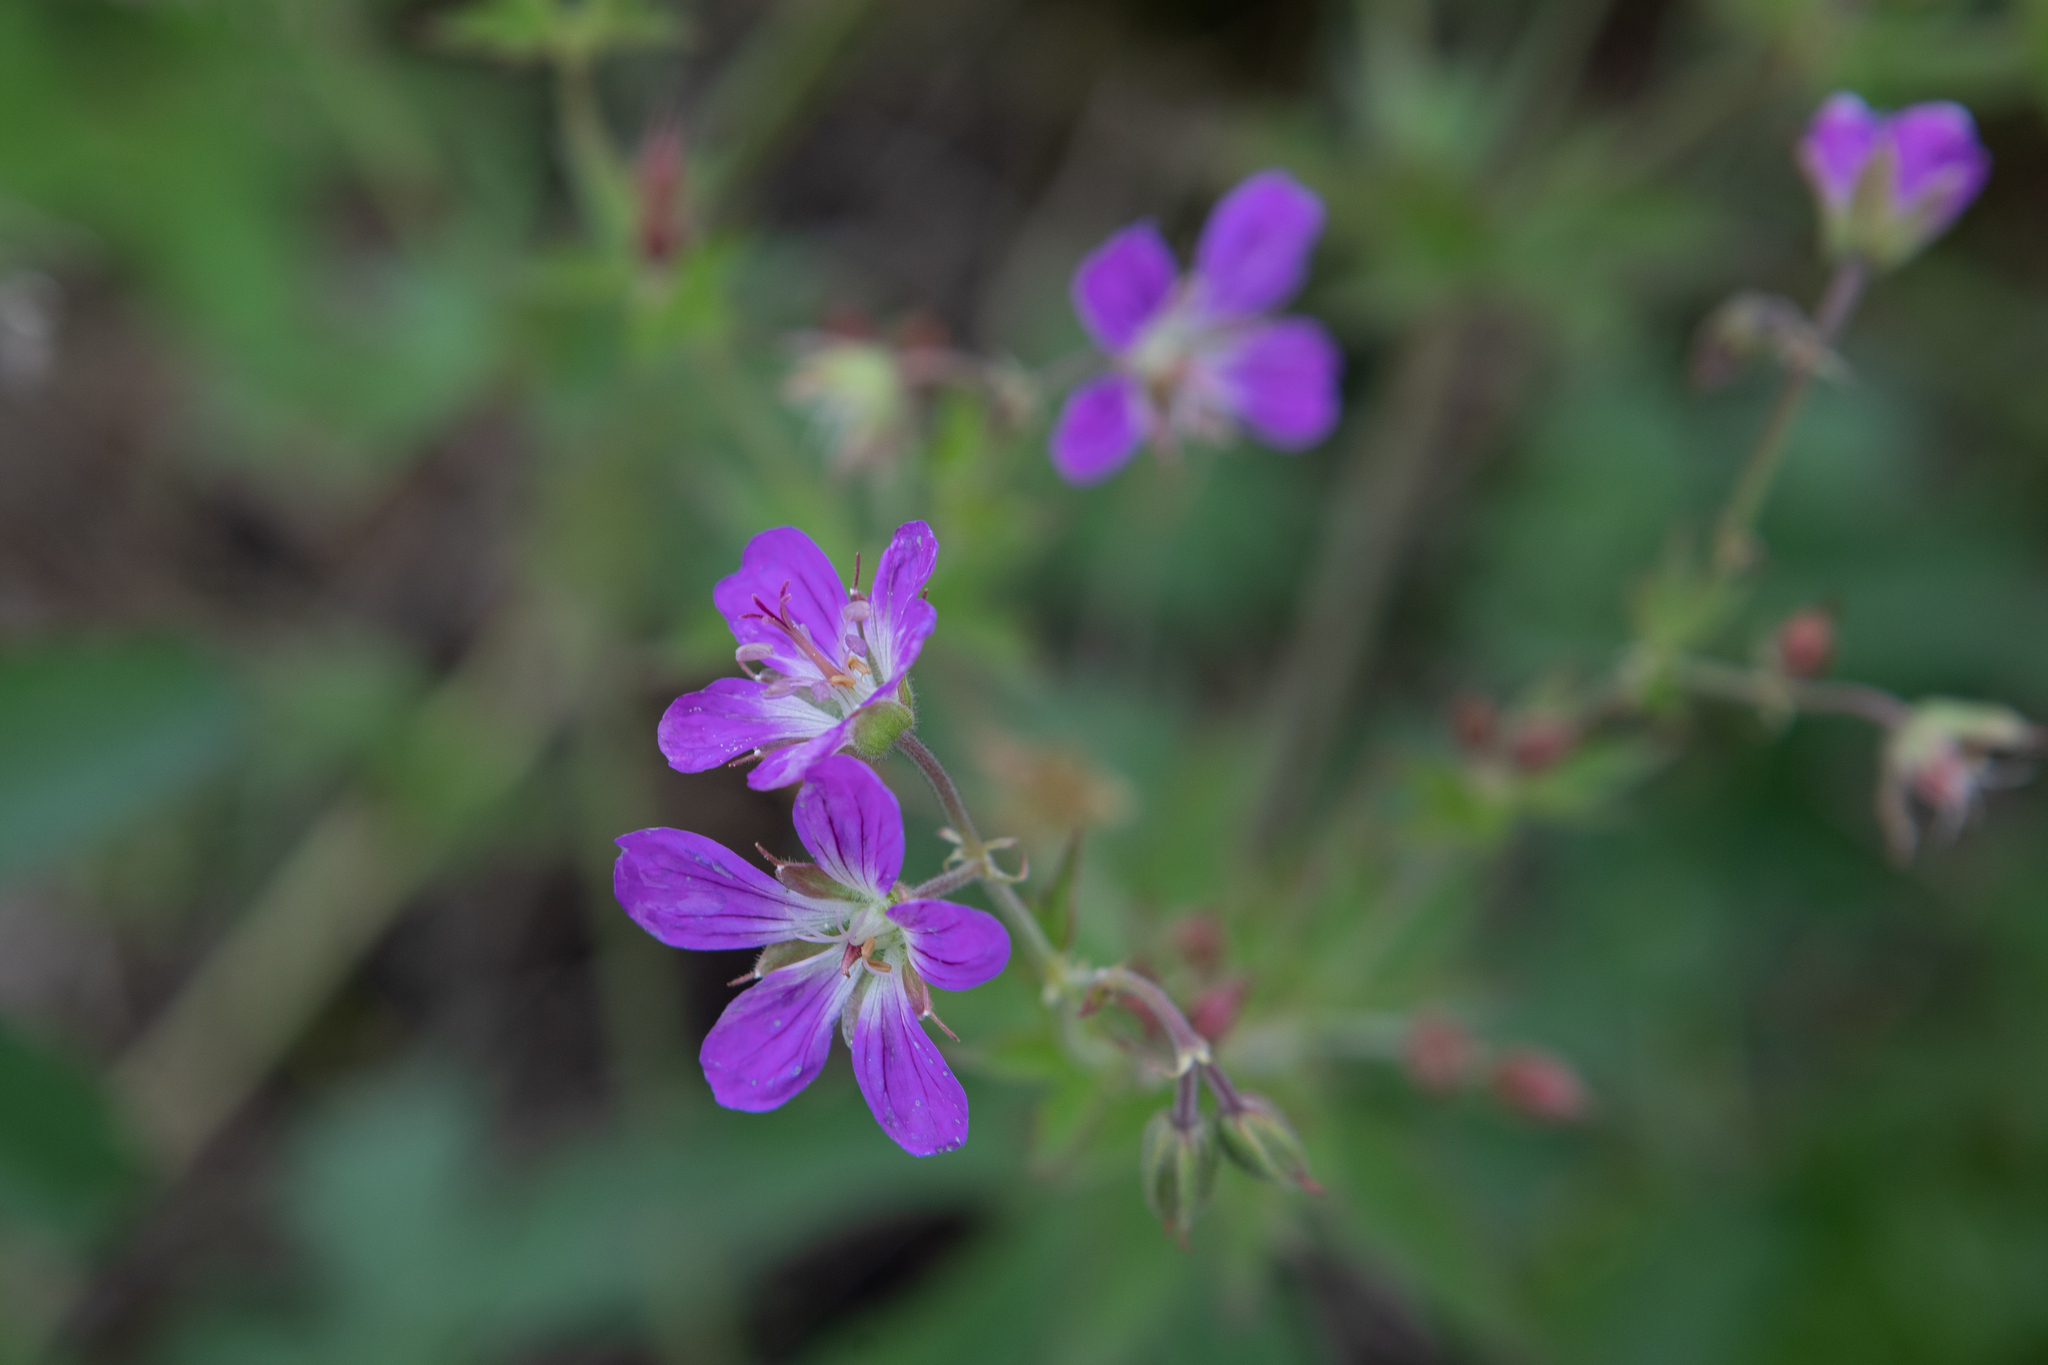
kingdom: Plantae
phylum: Tracheophyta
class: Magnoliopsida
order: Geraniales
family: Geraniaceae
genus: Geranium
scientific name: Geranium sylvaticum
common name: Wood crane's-bill
